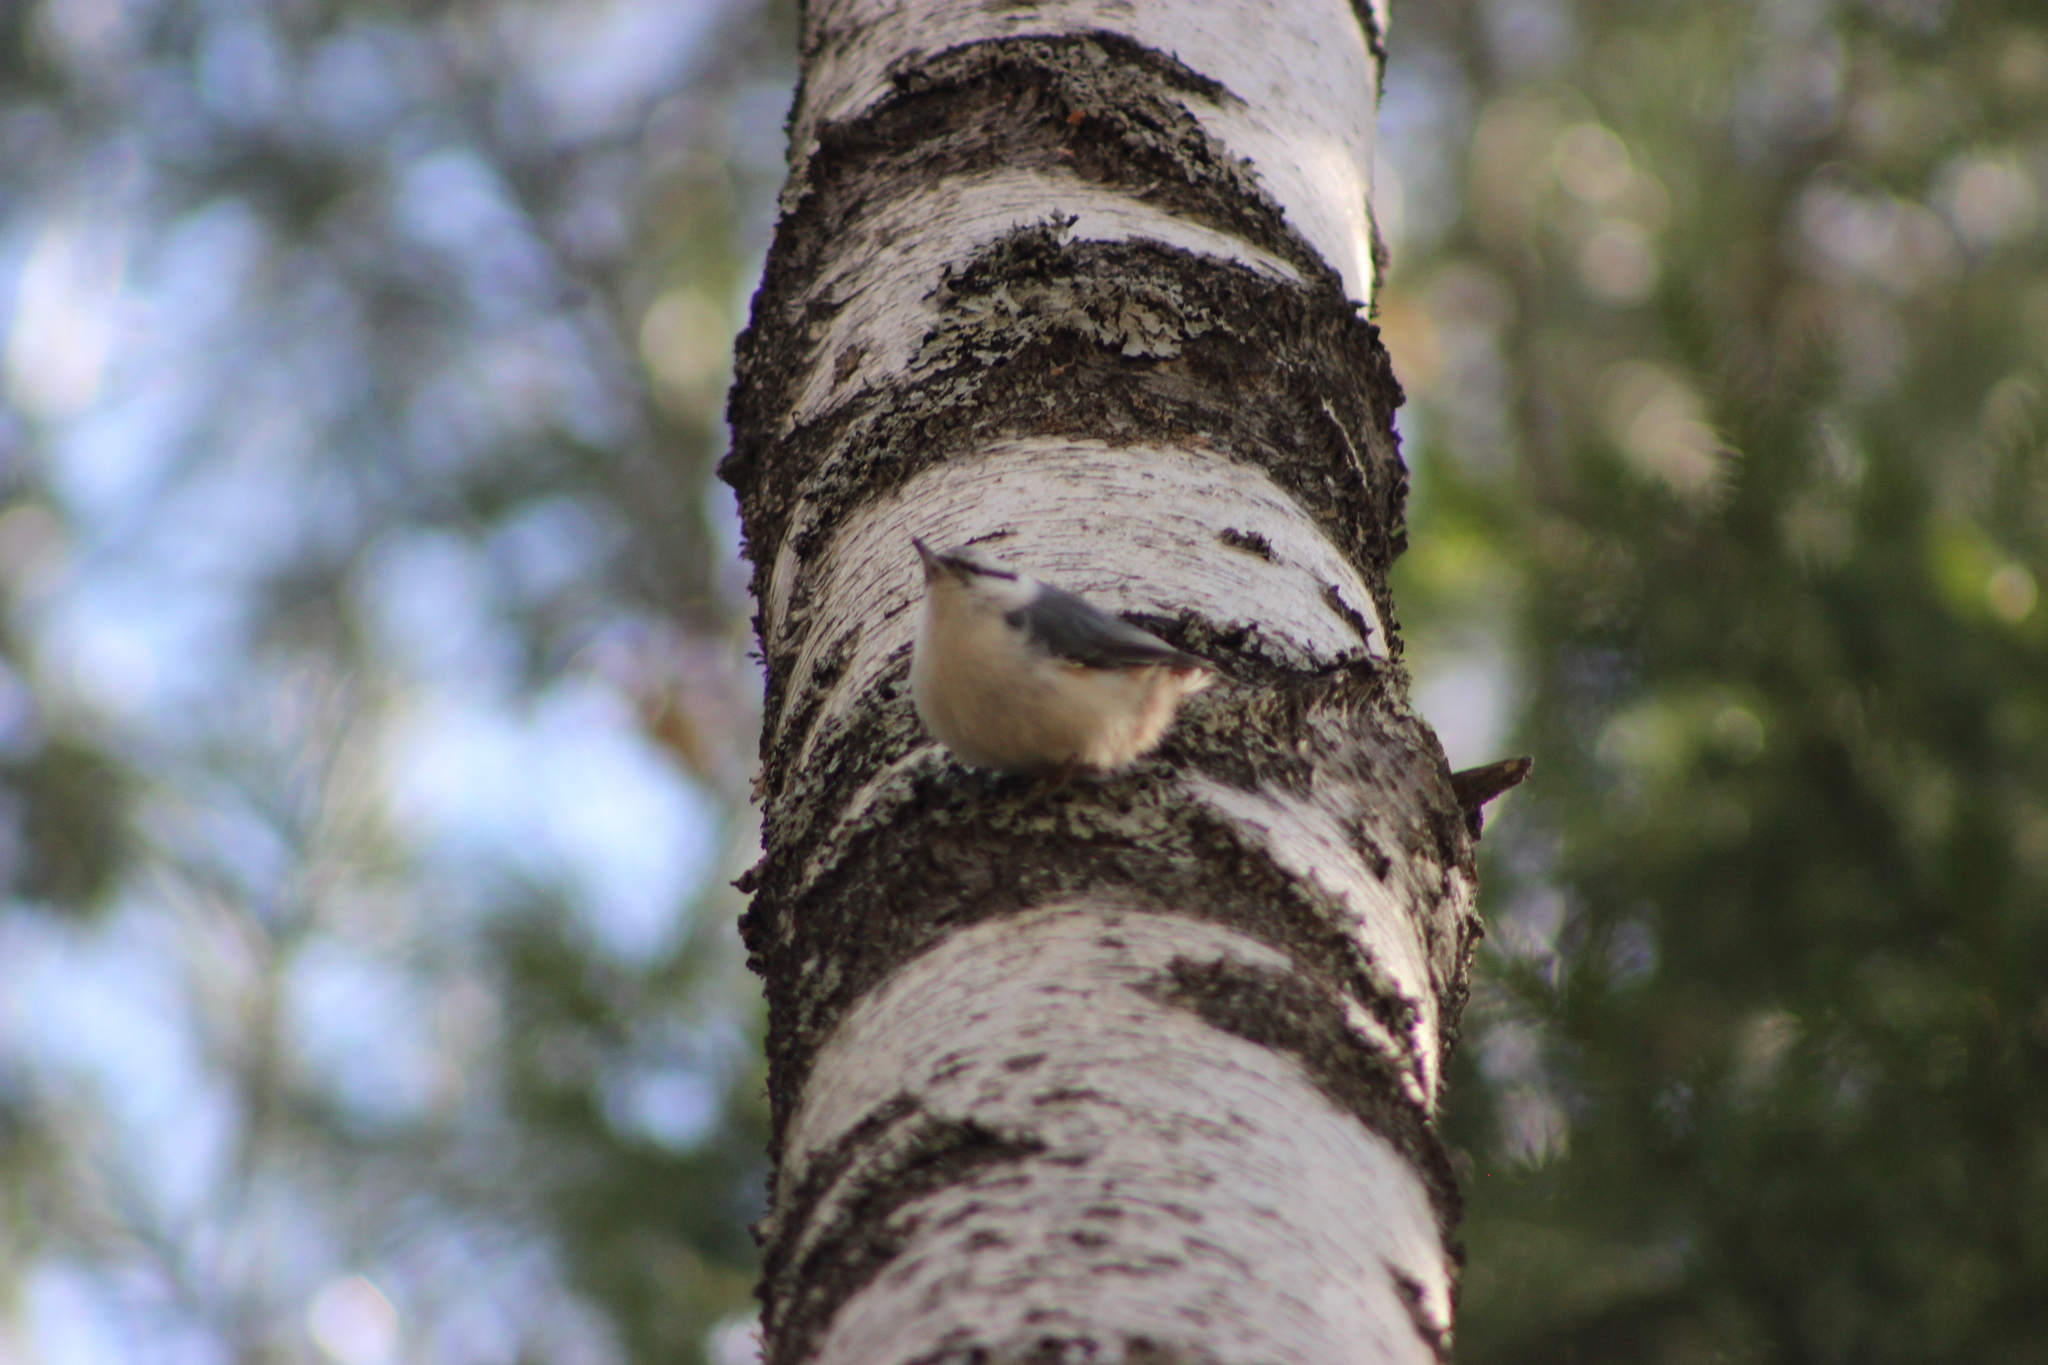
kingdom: Animalia
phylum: Chordata
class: Aves
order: Passeriformes
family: Sittidae
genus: Sitta
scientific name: Sitta europaea
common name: Eurasian nuthatch
